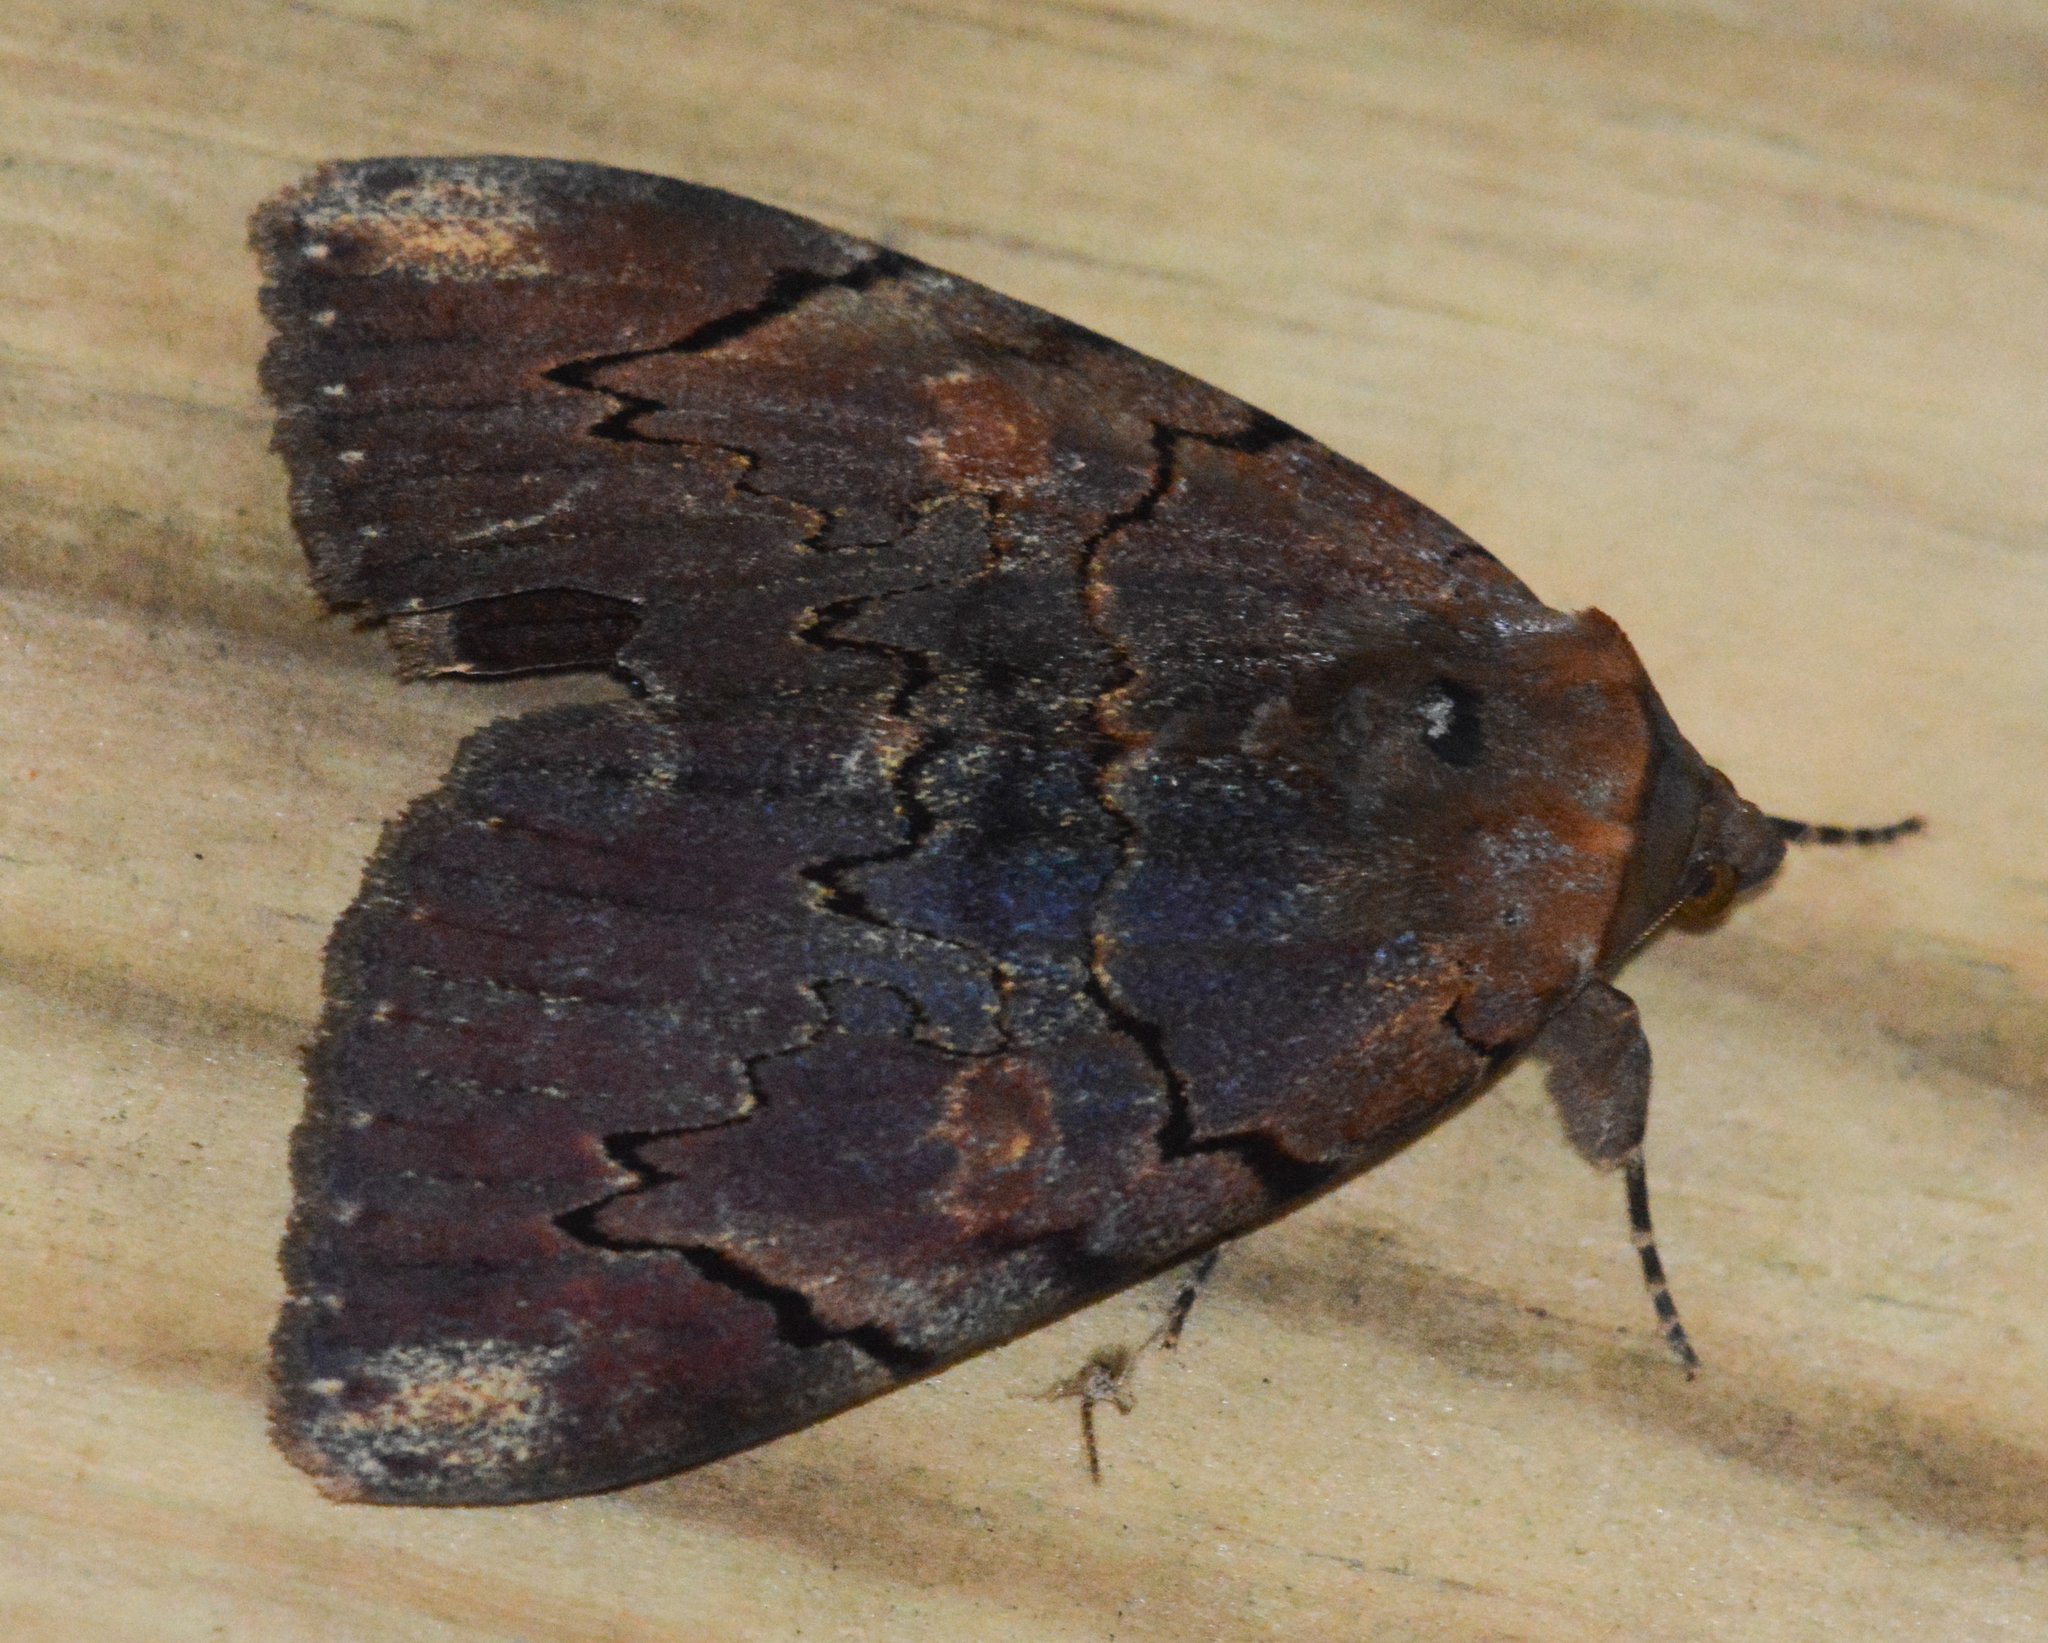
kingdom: Animalia
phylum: Arthropoda
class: Insecta
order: Lepidoptera
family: Erebidae
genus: Catocala
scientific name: Catocala carissima
